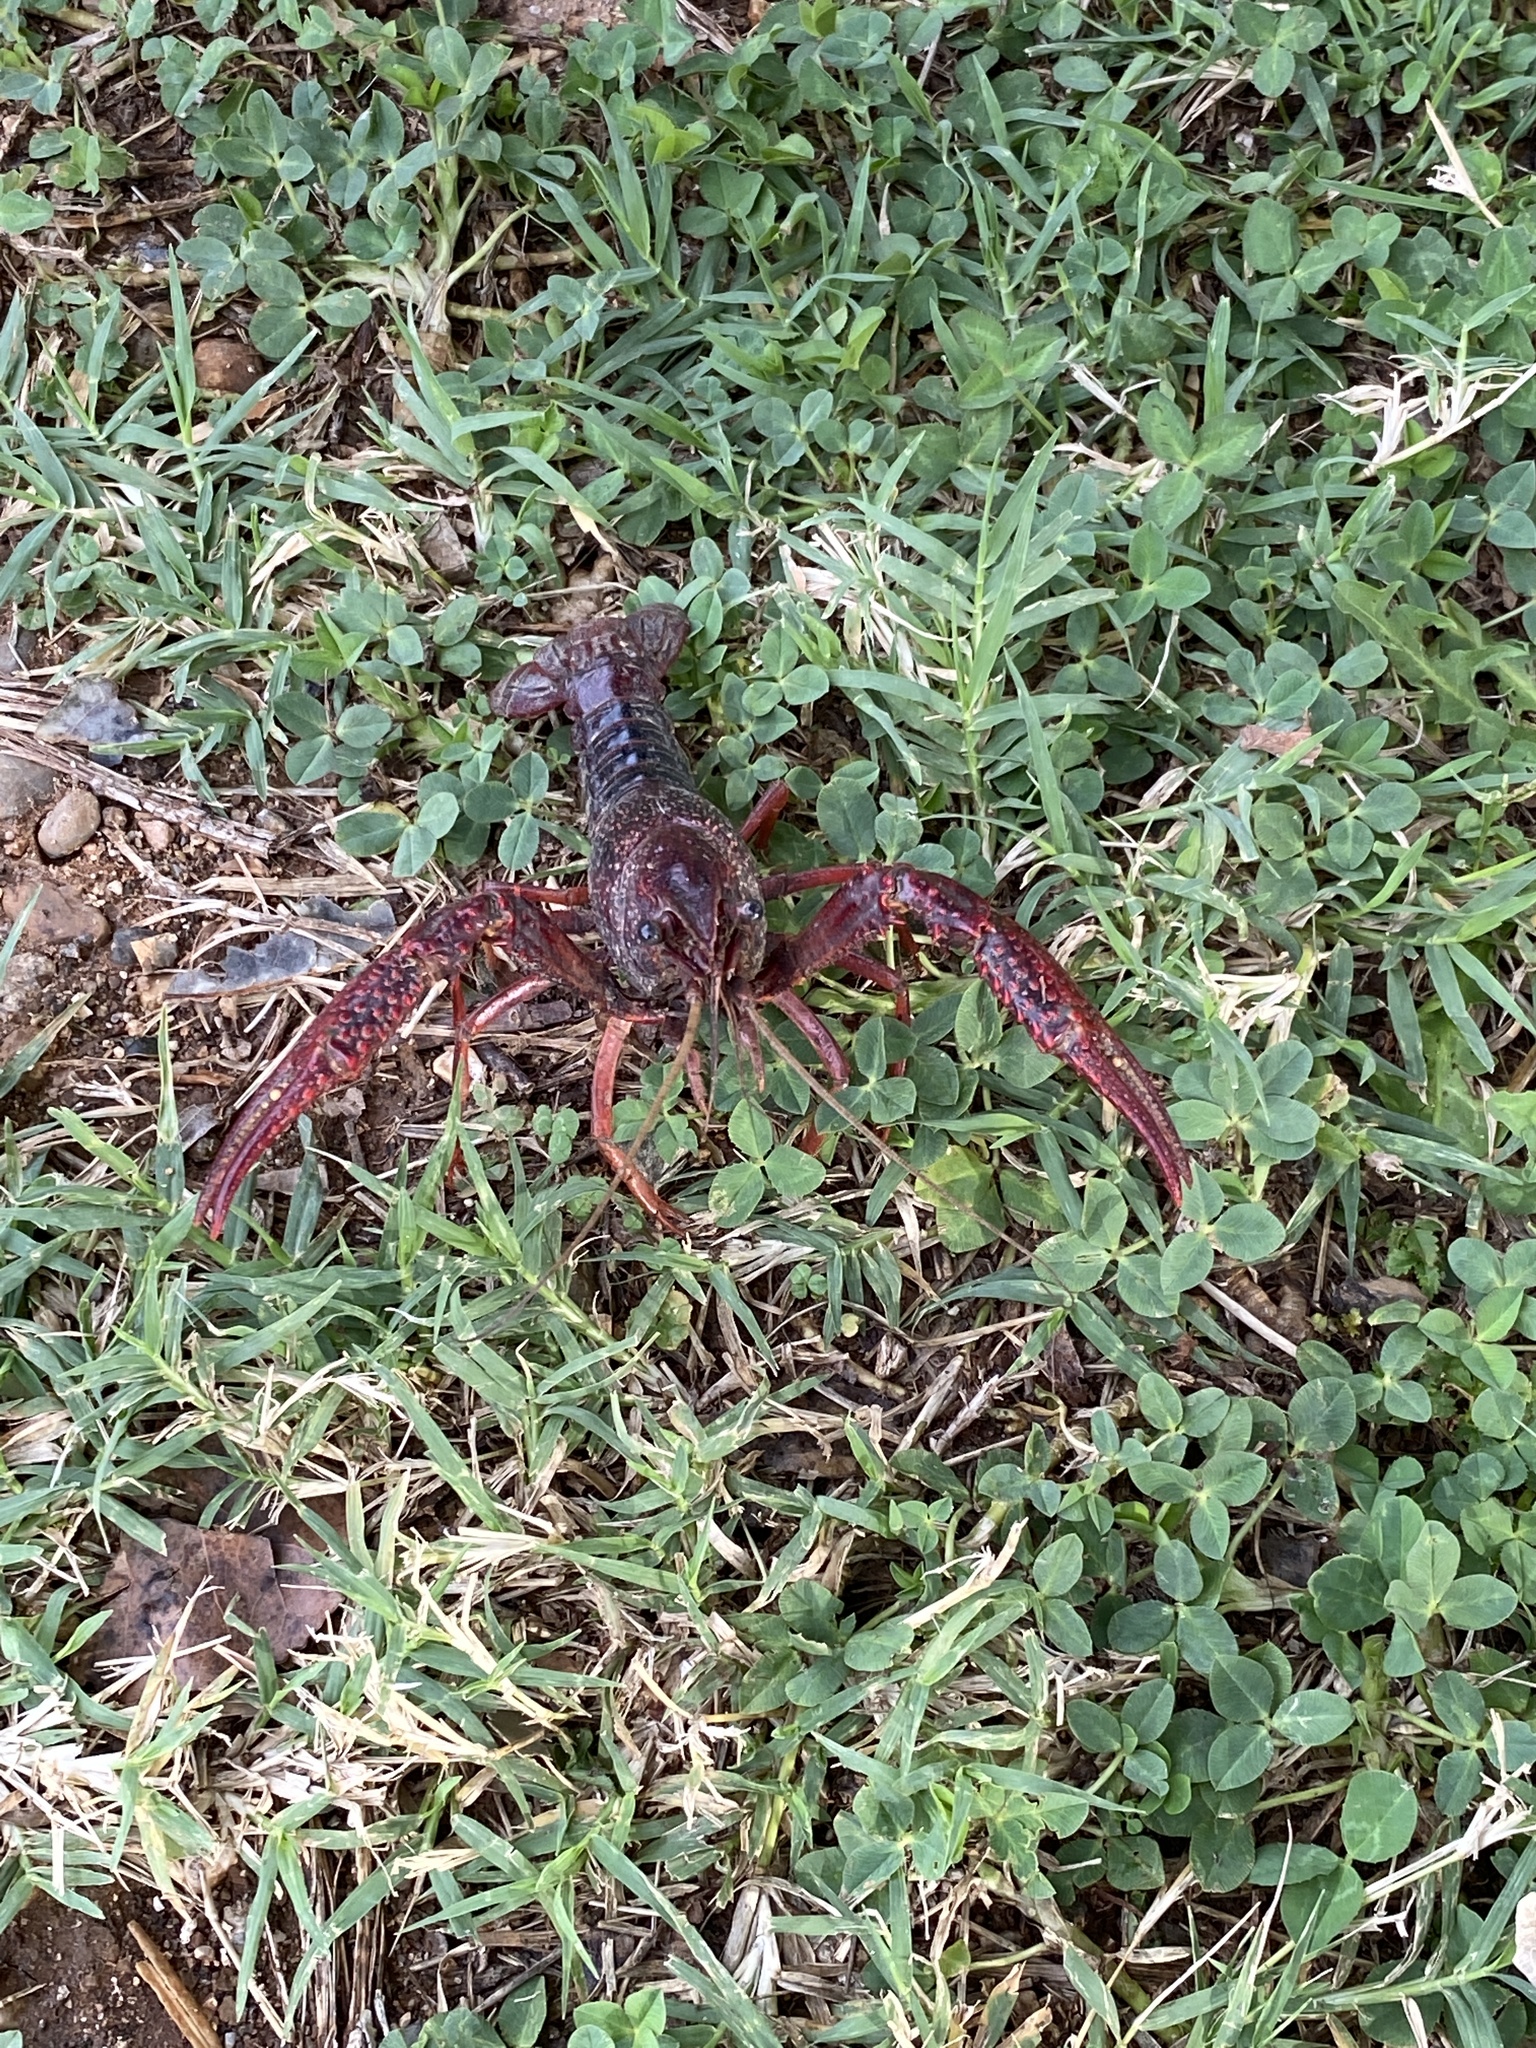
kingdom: Animalia
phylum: Arthropoda
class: Malacostraca
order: Decapoda
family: Cambaridae
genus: Procambarus
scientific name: Procambarus clarkii
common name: Red swamp crayfish
